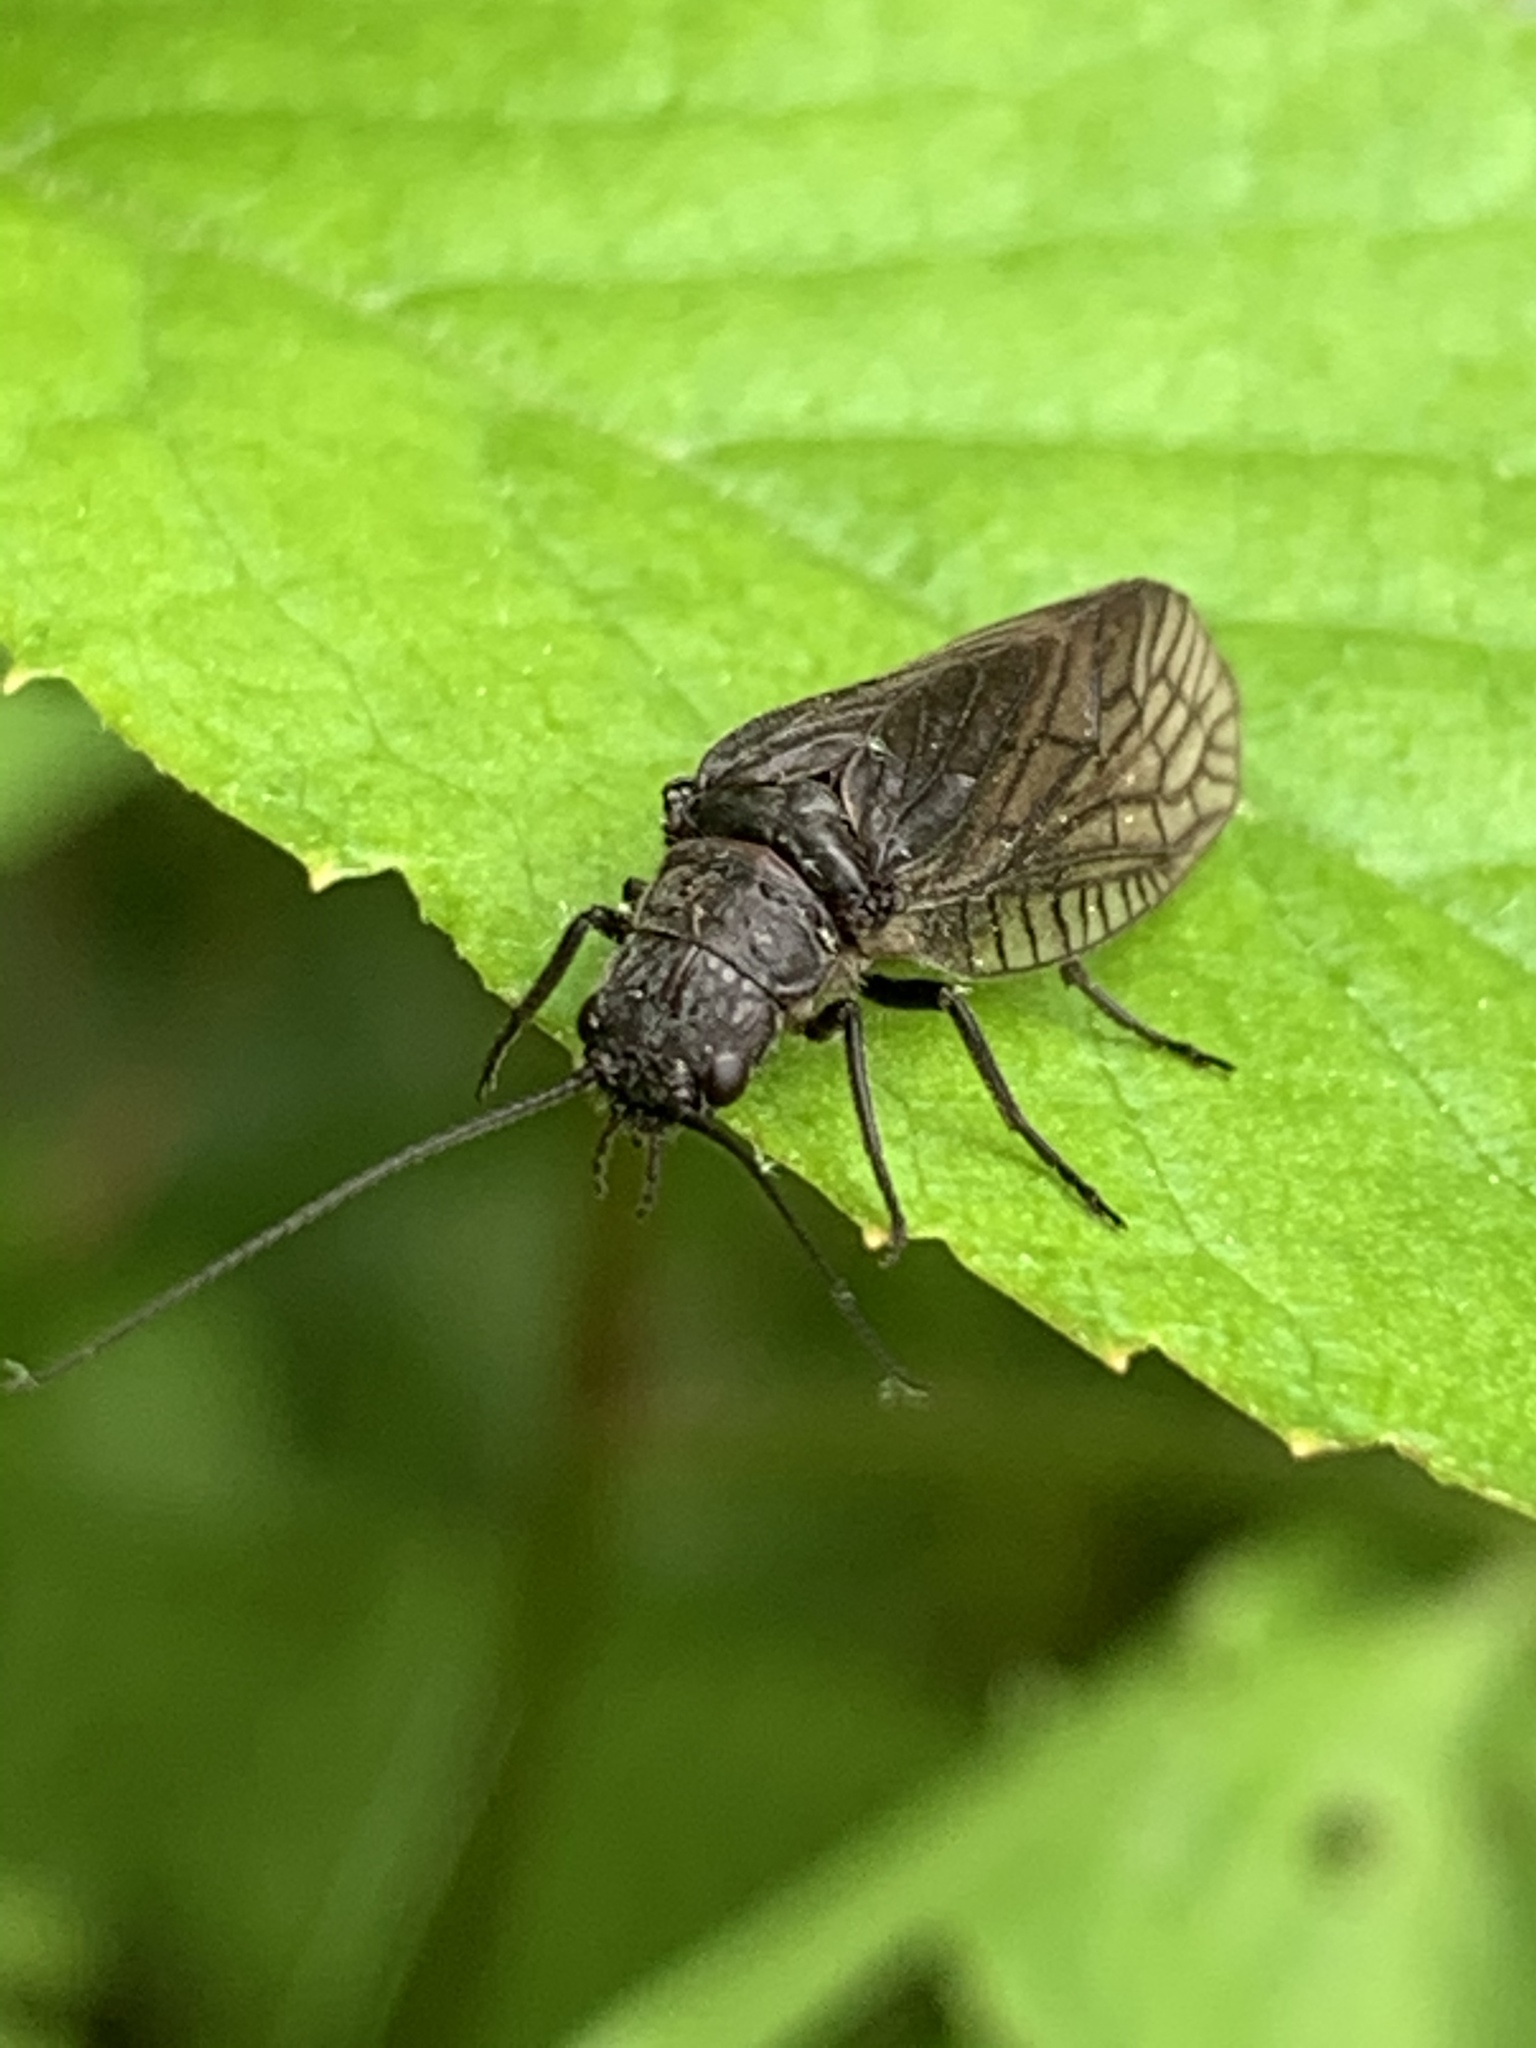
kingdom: Animalia
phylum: Arthropoda
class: Insecta
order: Megaloptera
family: Sialidae
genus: Sialis
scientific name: Sialis
